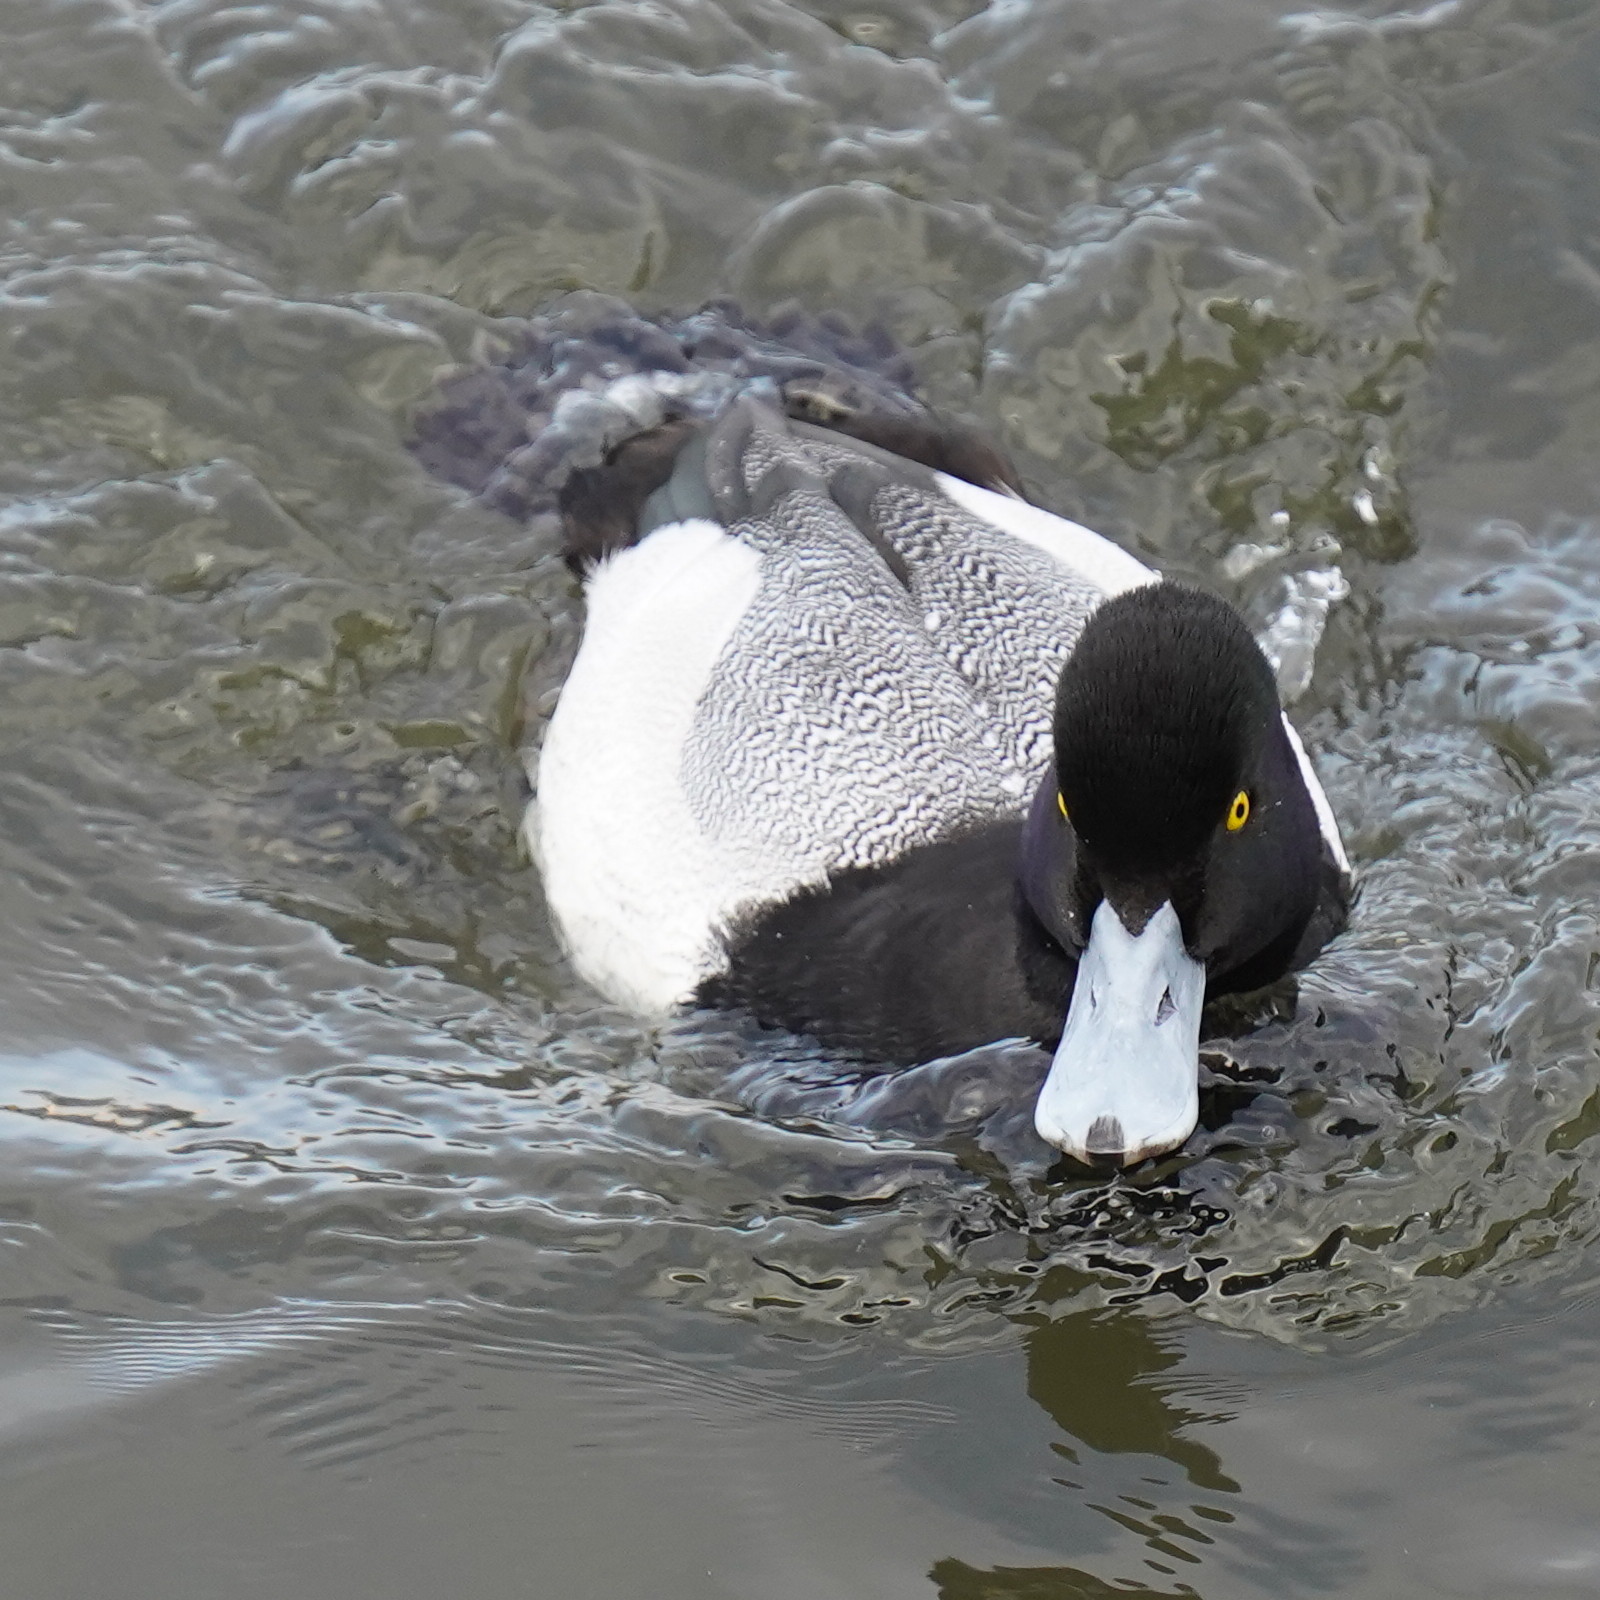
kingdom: Animalia
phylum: Chordata
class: Aves
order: Anseriformes
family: Anatidae
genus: Aythya
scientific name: Aythya affinis
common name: Lesser scaup
